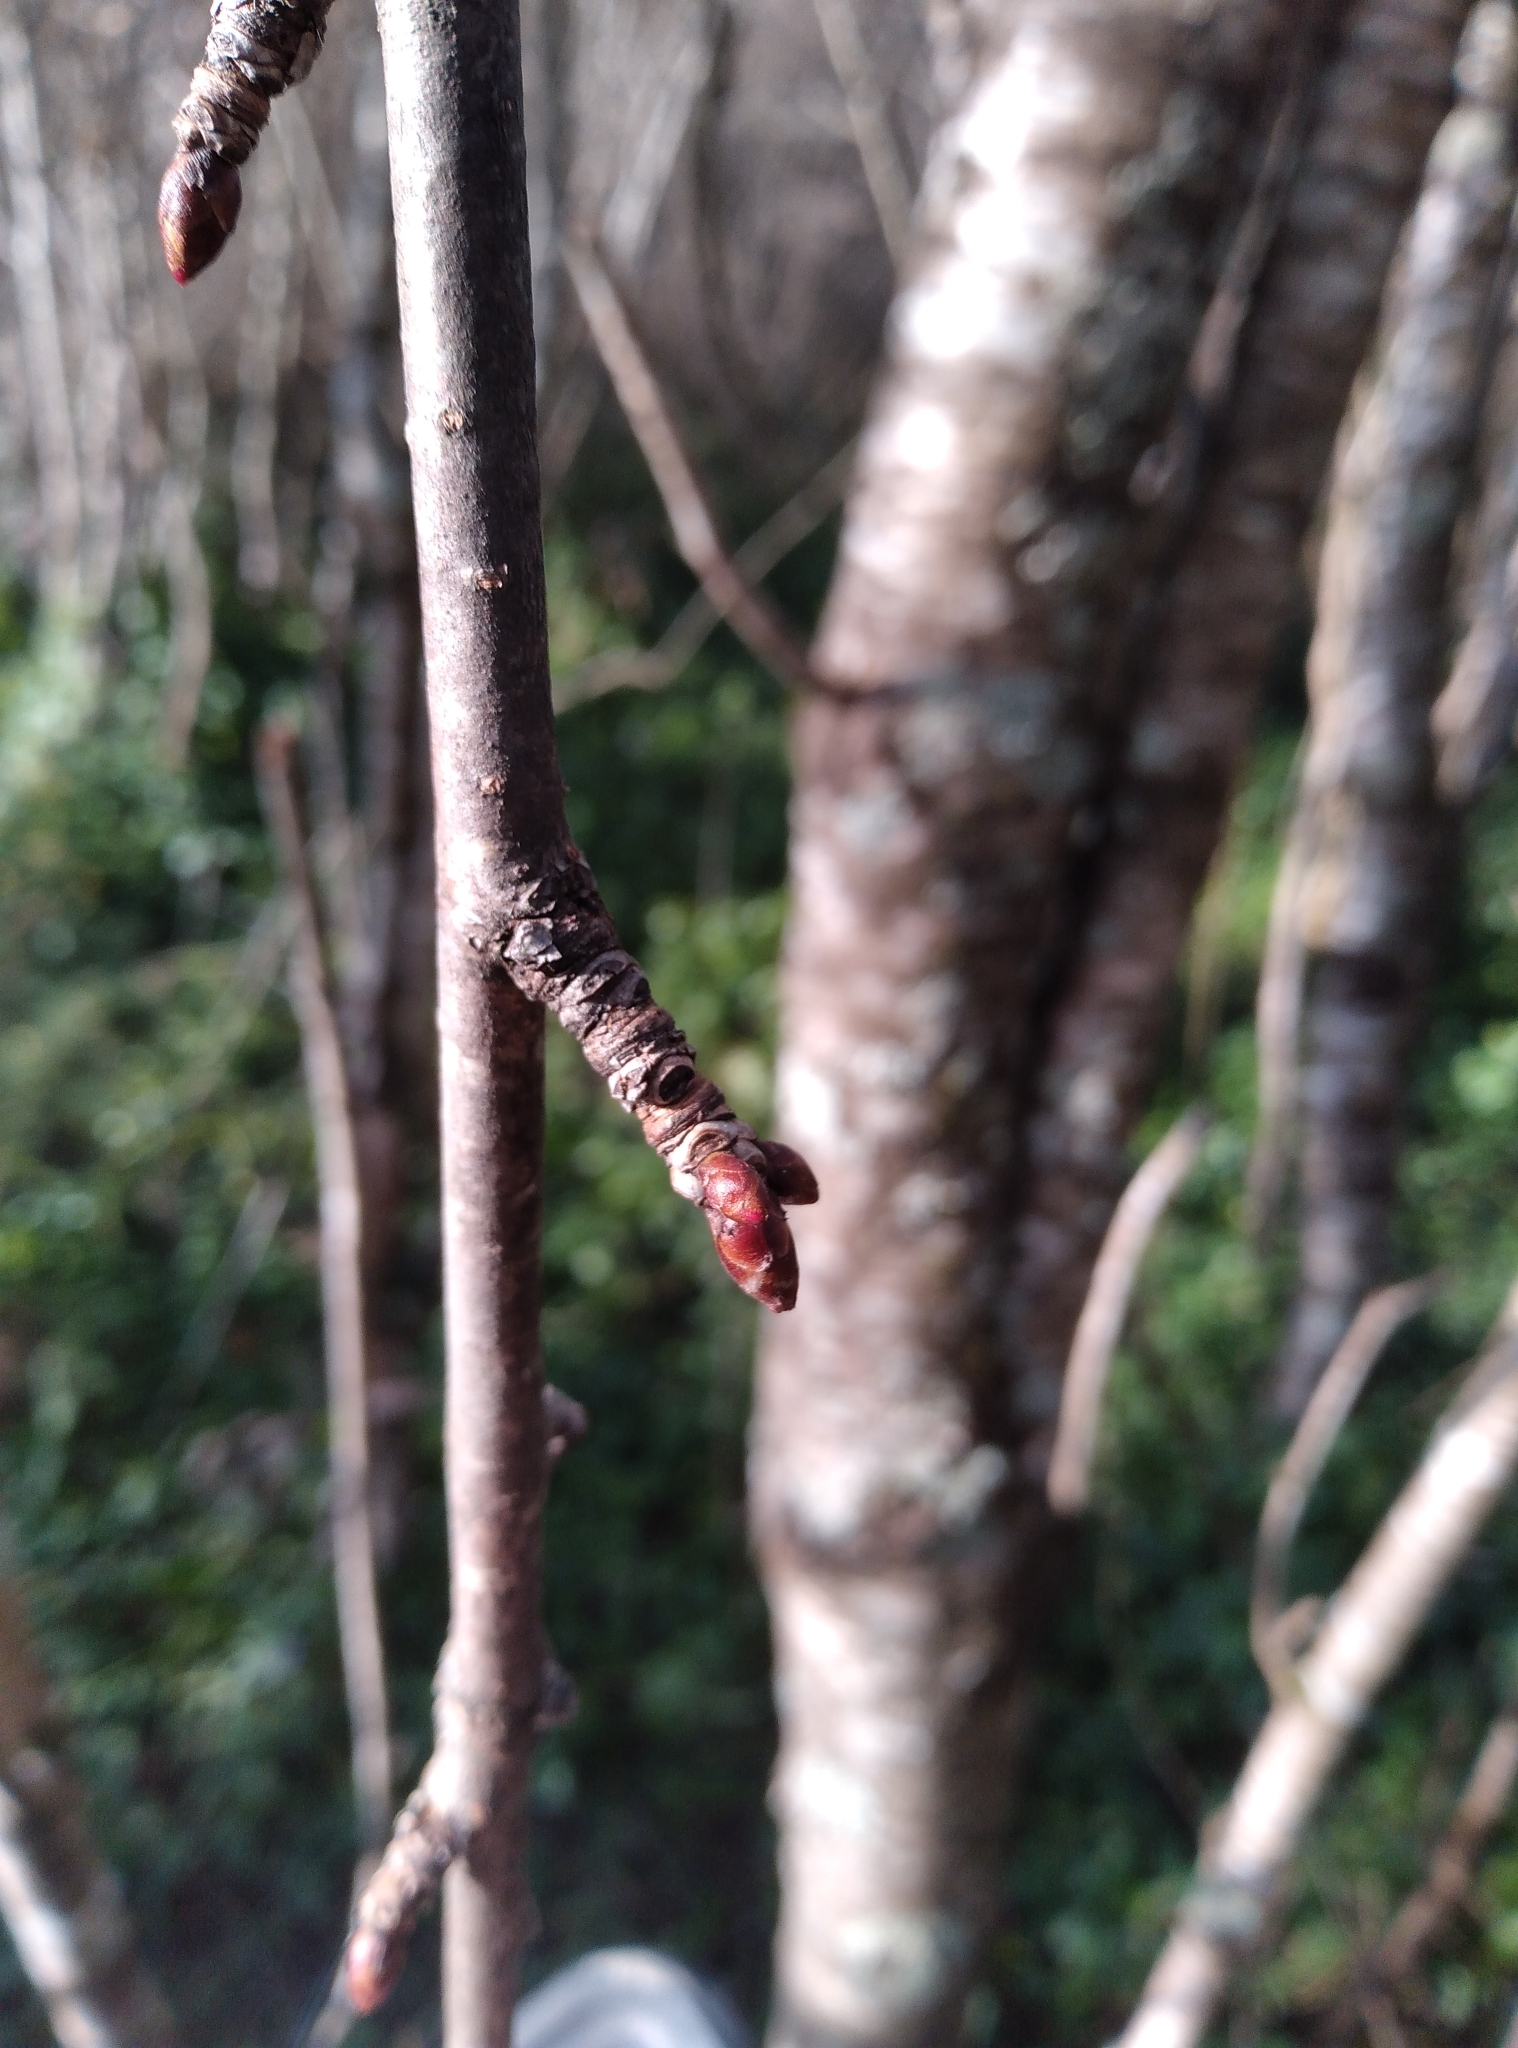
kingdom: Plantae
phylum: Tracheophyta
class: Magnoliopsida
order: Rosales
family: Rosaceae
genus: Prunus
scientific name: Prunus avium
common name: Sweet cherry
